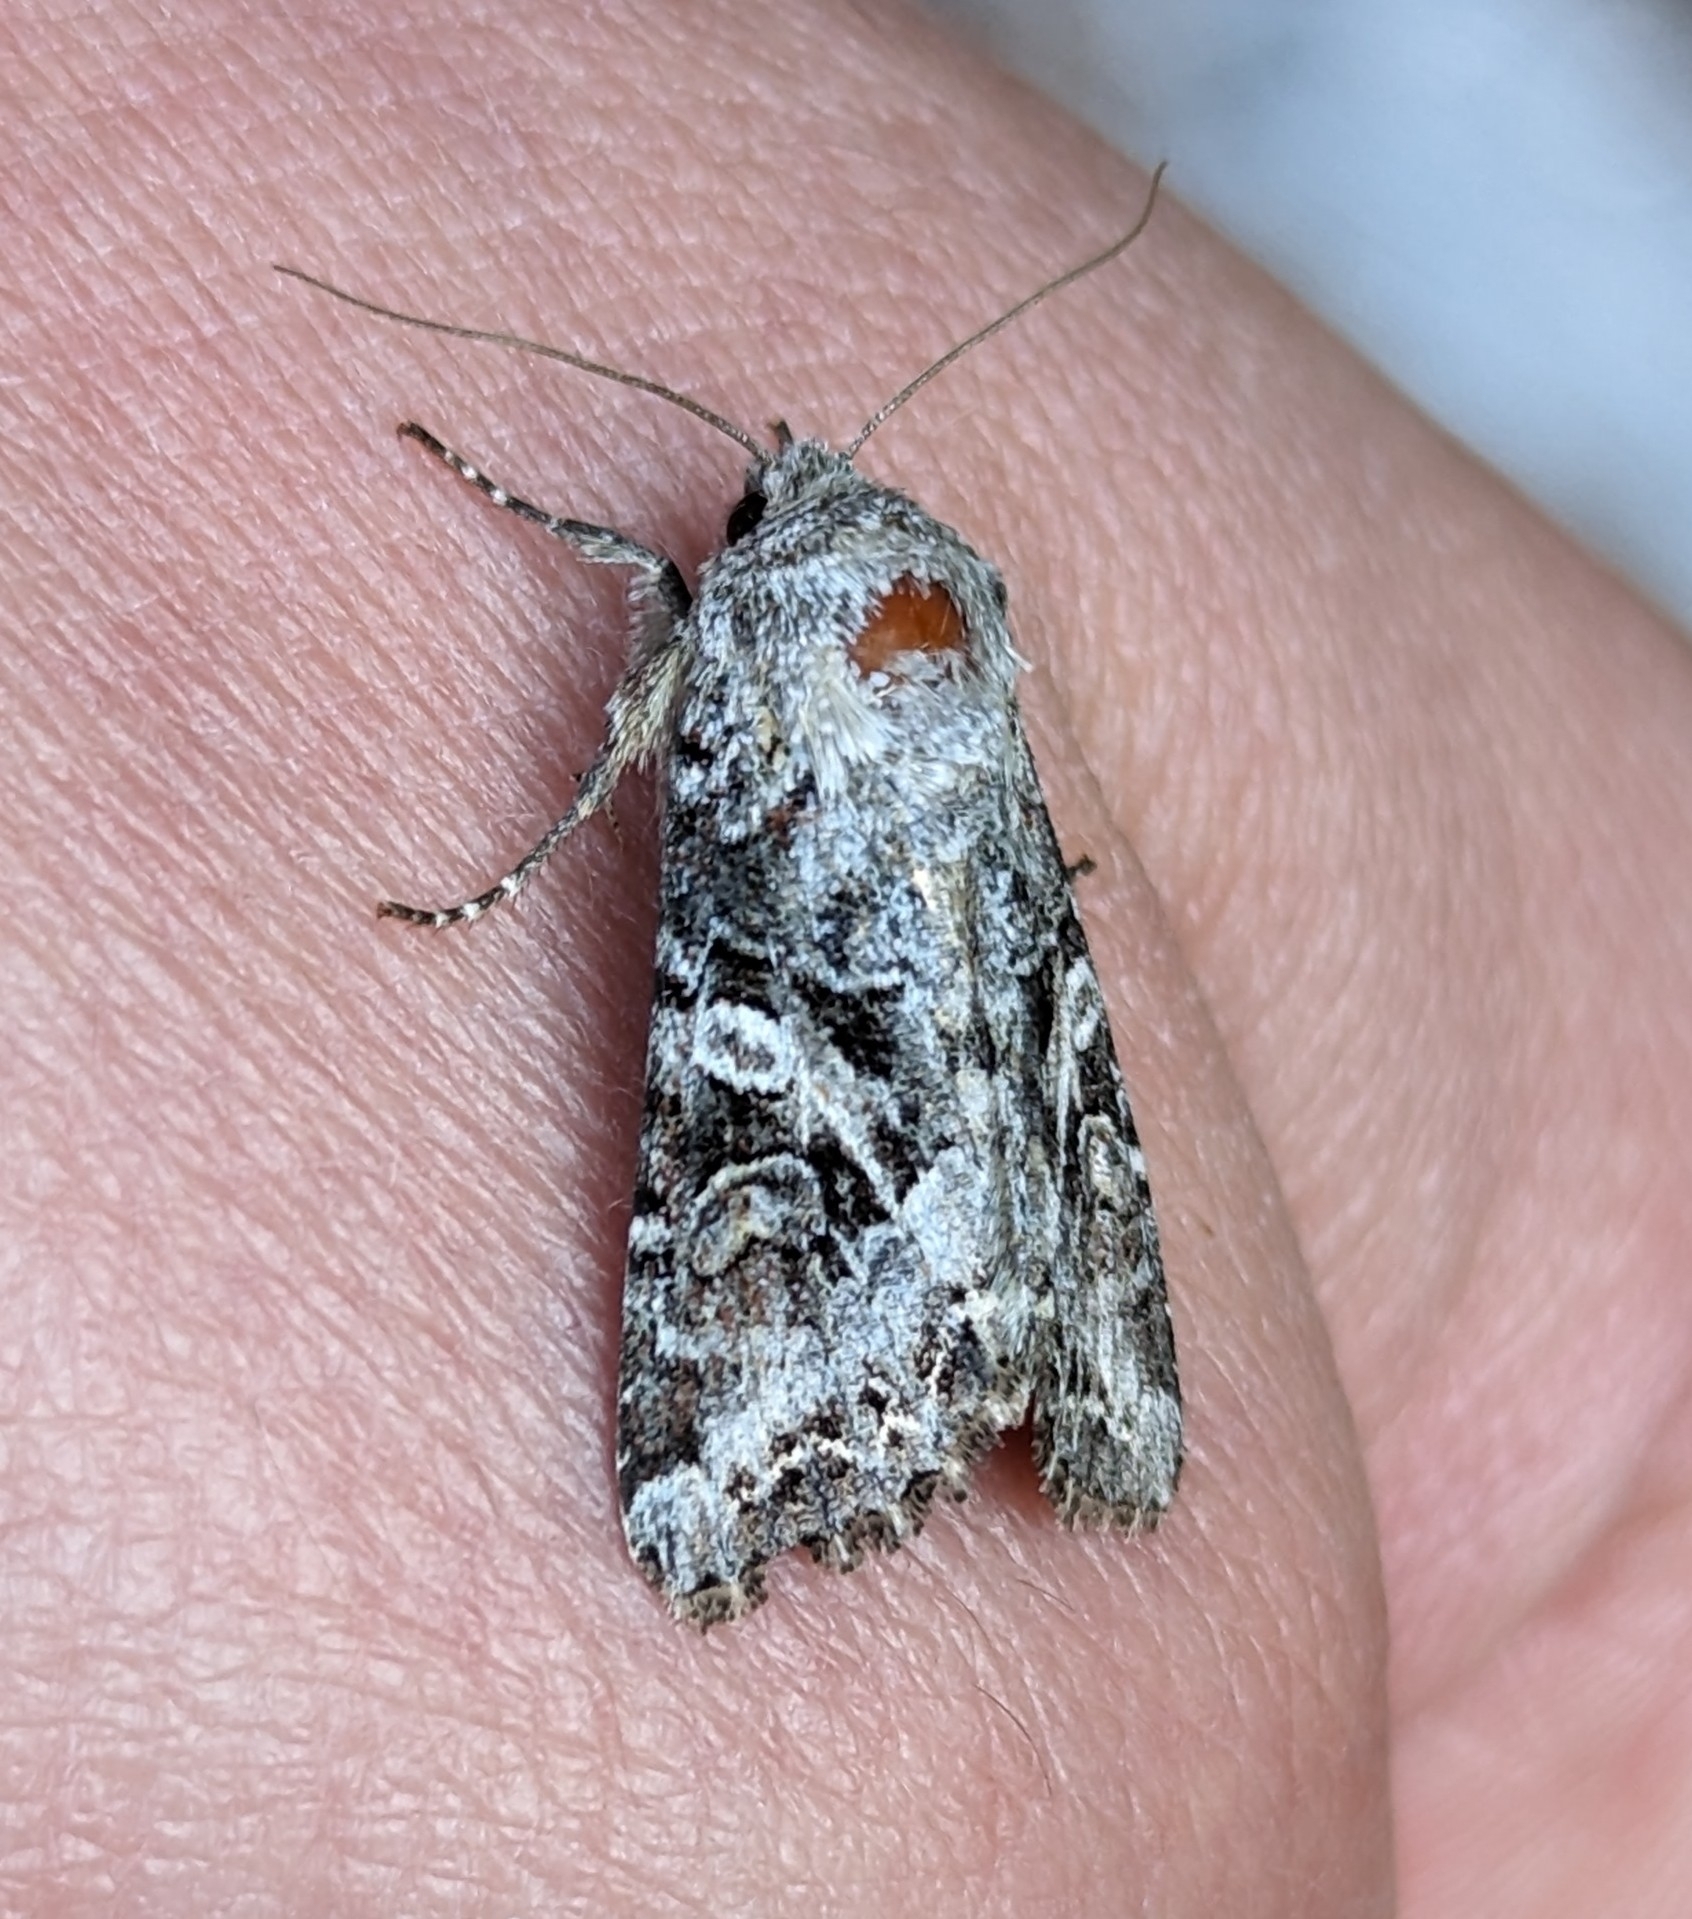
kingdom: Animalia
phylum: Arthropoda
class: Insecta
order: Lepidoptera
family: Noctuidae
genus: Trichordestra
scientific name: Trichordestra liquida
